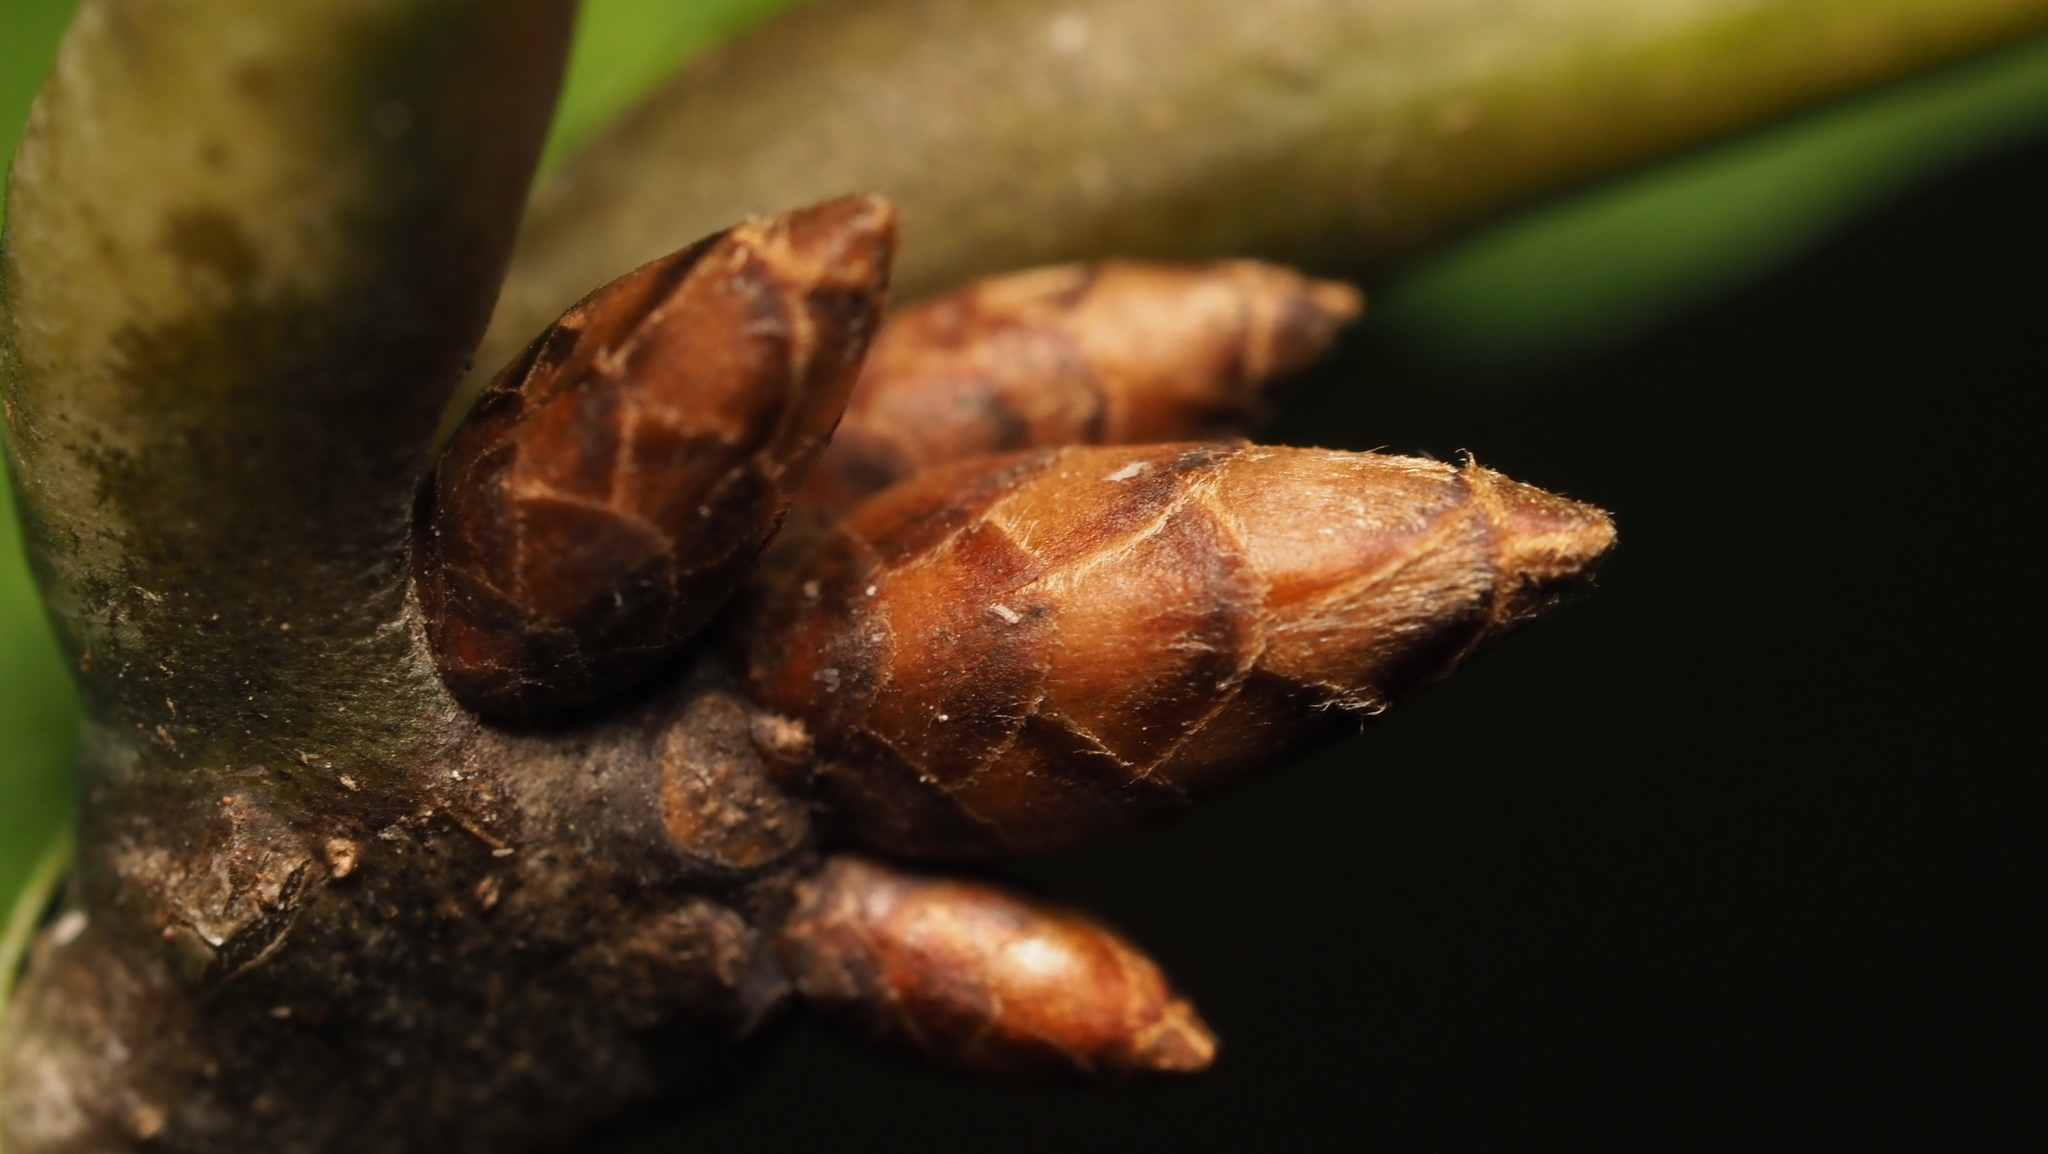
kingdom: Plantae
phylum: Tracheophyta
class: Magnoliopsida
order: Fagales
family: Fagaceae
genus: Quercus
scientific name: Quercus rubra
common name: Red oak
